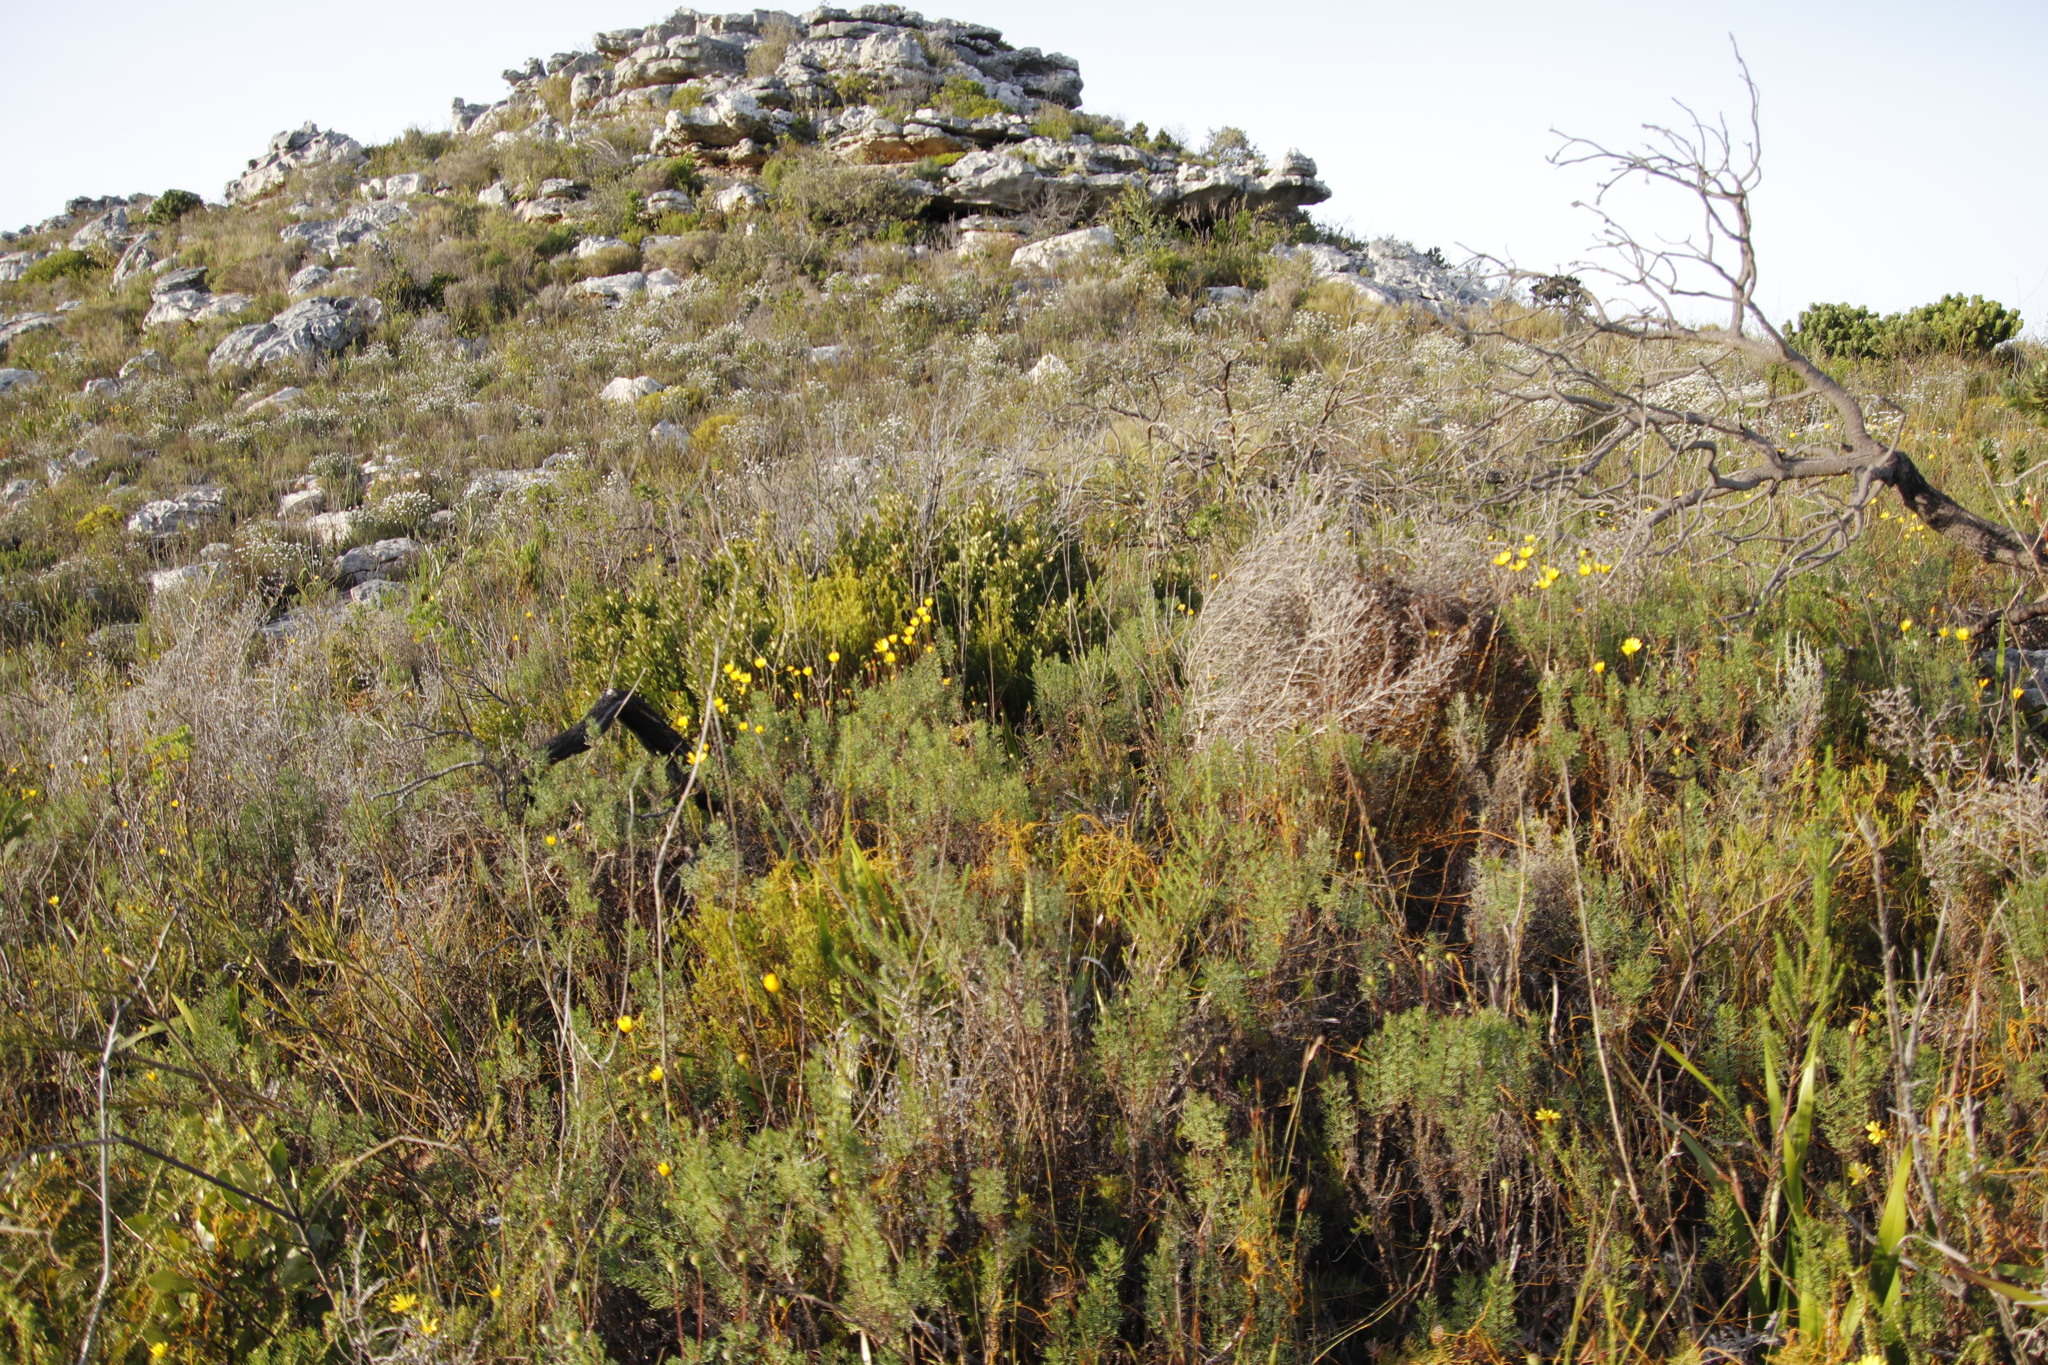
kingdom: Plantae
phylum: Tracheophyta
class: Magnoliopsida
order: Asterales
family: Asteraceae
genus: Euryops
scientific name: Euryops abrotanifolius
